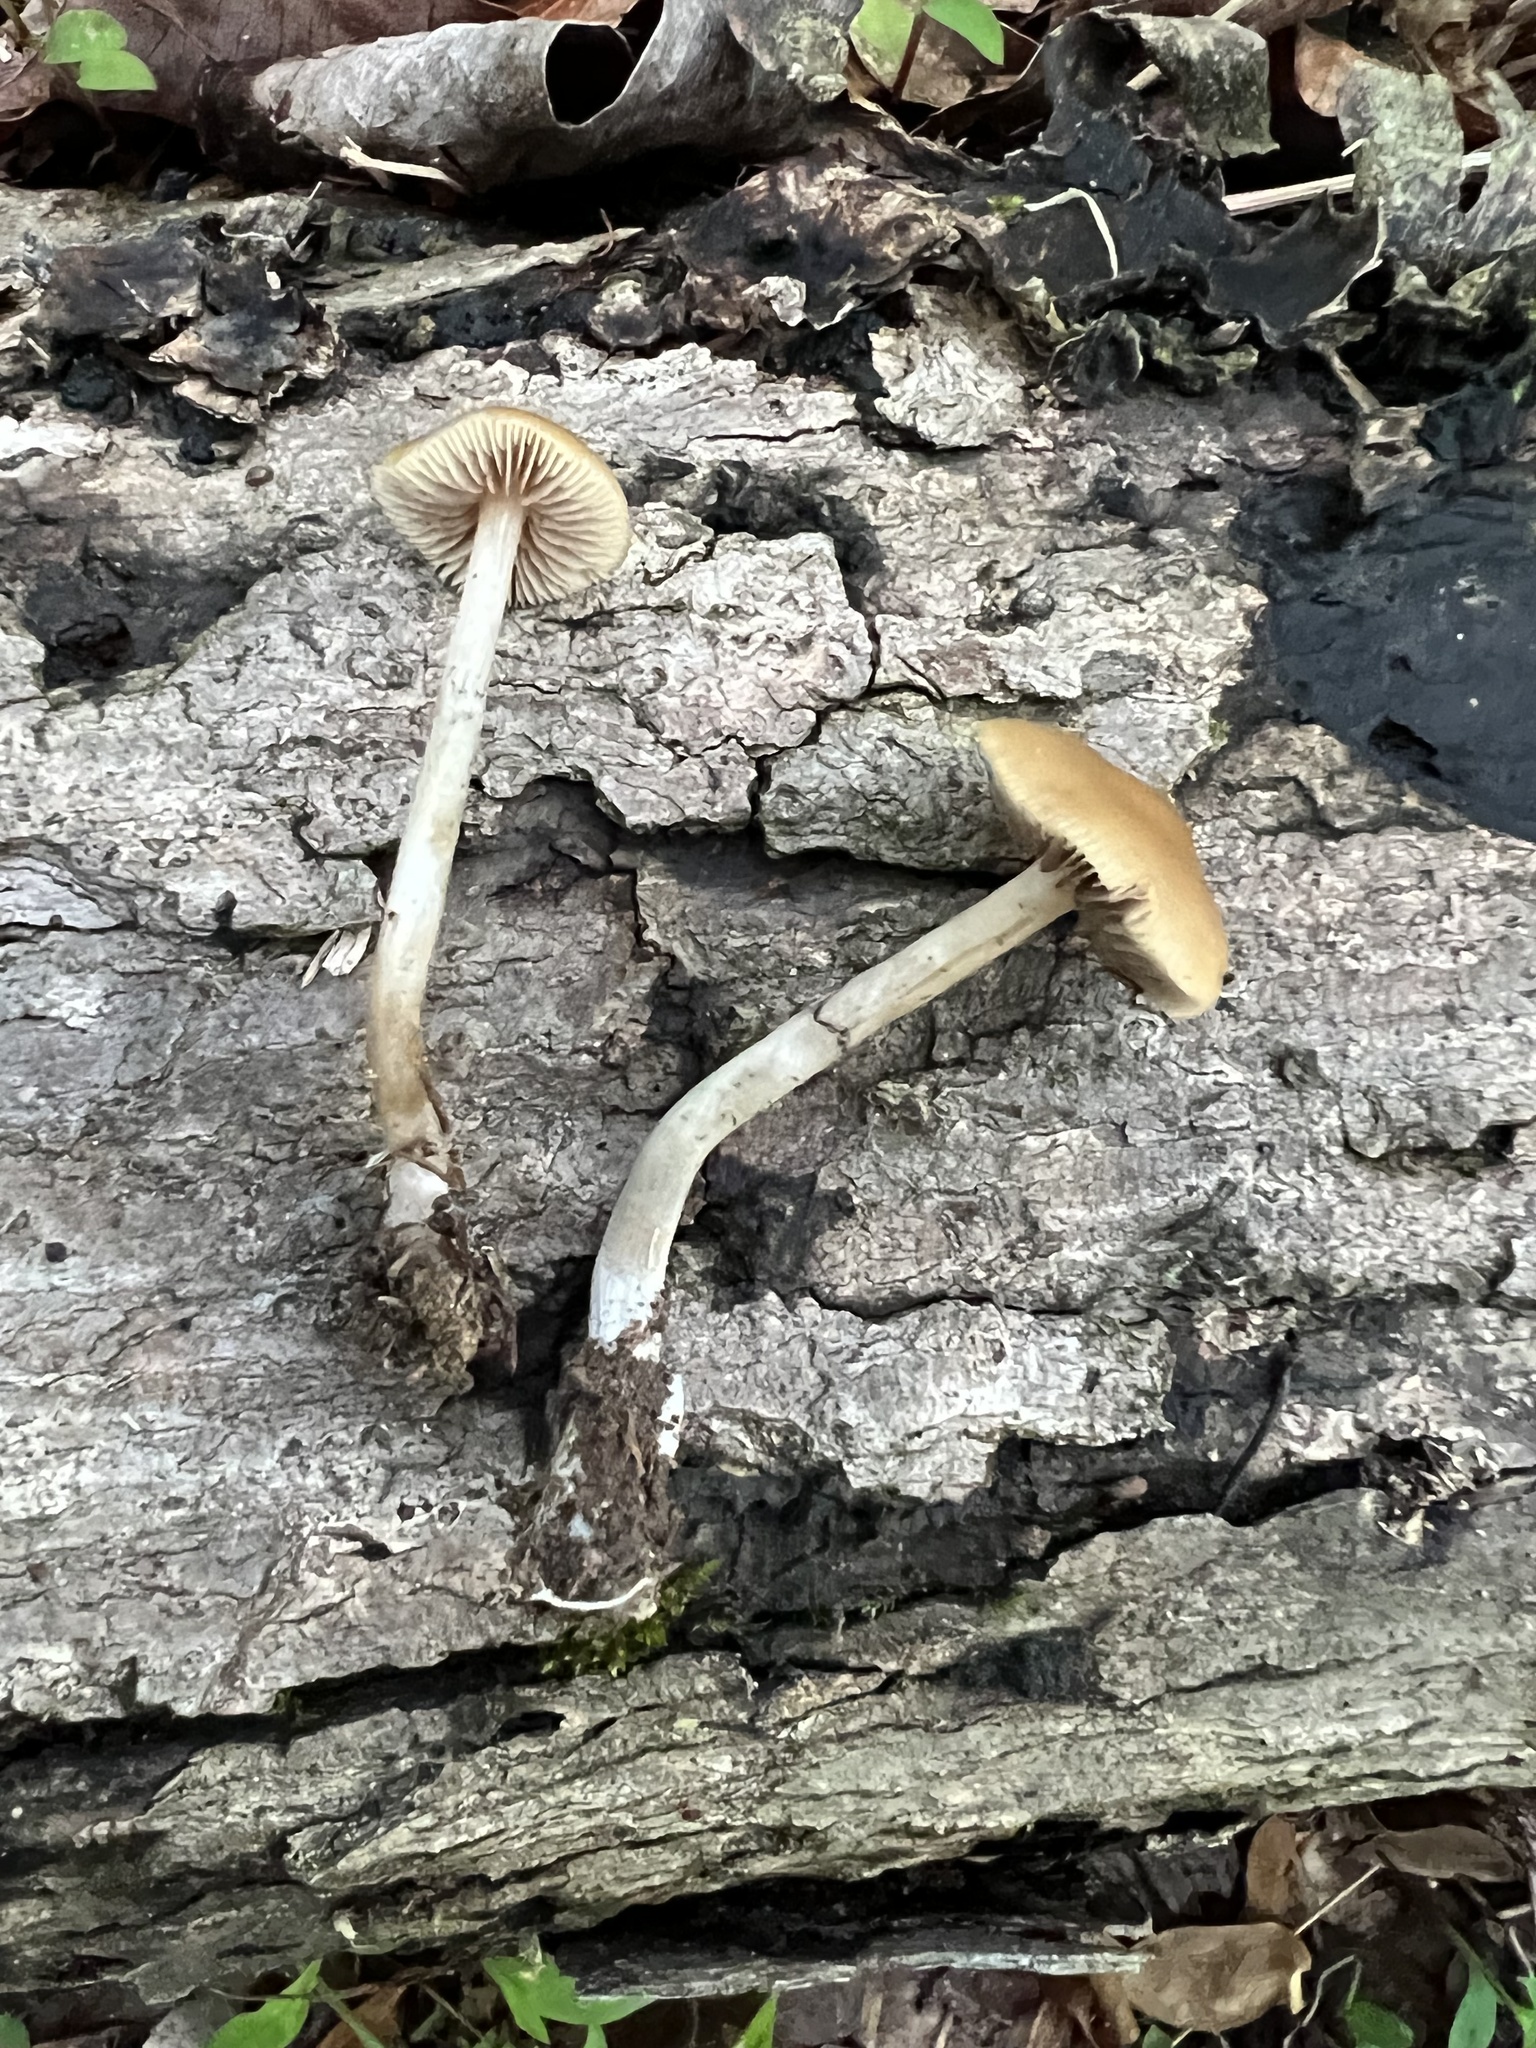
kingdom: Fungi
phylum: Basidiomycota
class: Agaricomycetes
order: Agaricales
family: Hymenogastraceae
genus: Psilocybe
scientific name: Psilocybe ovoideocystidiata
